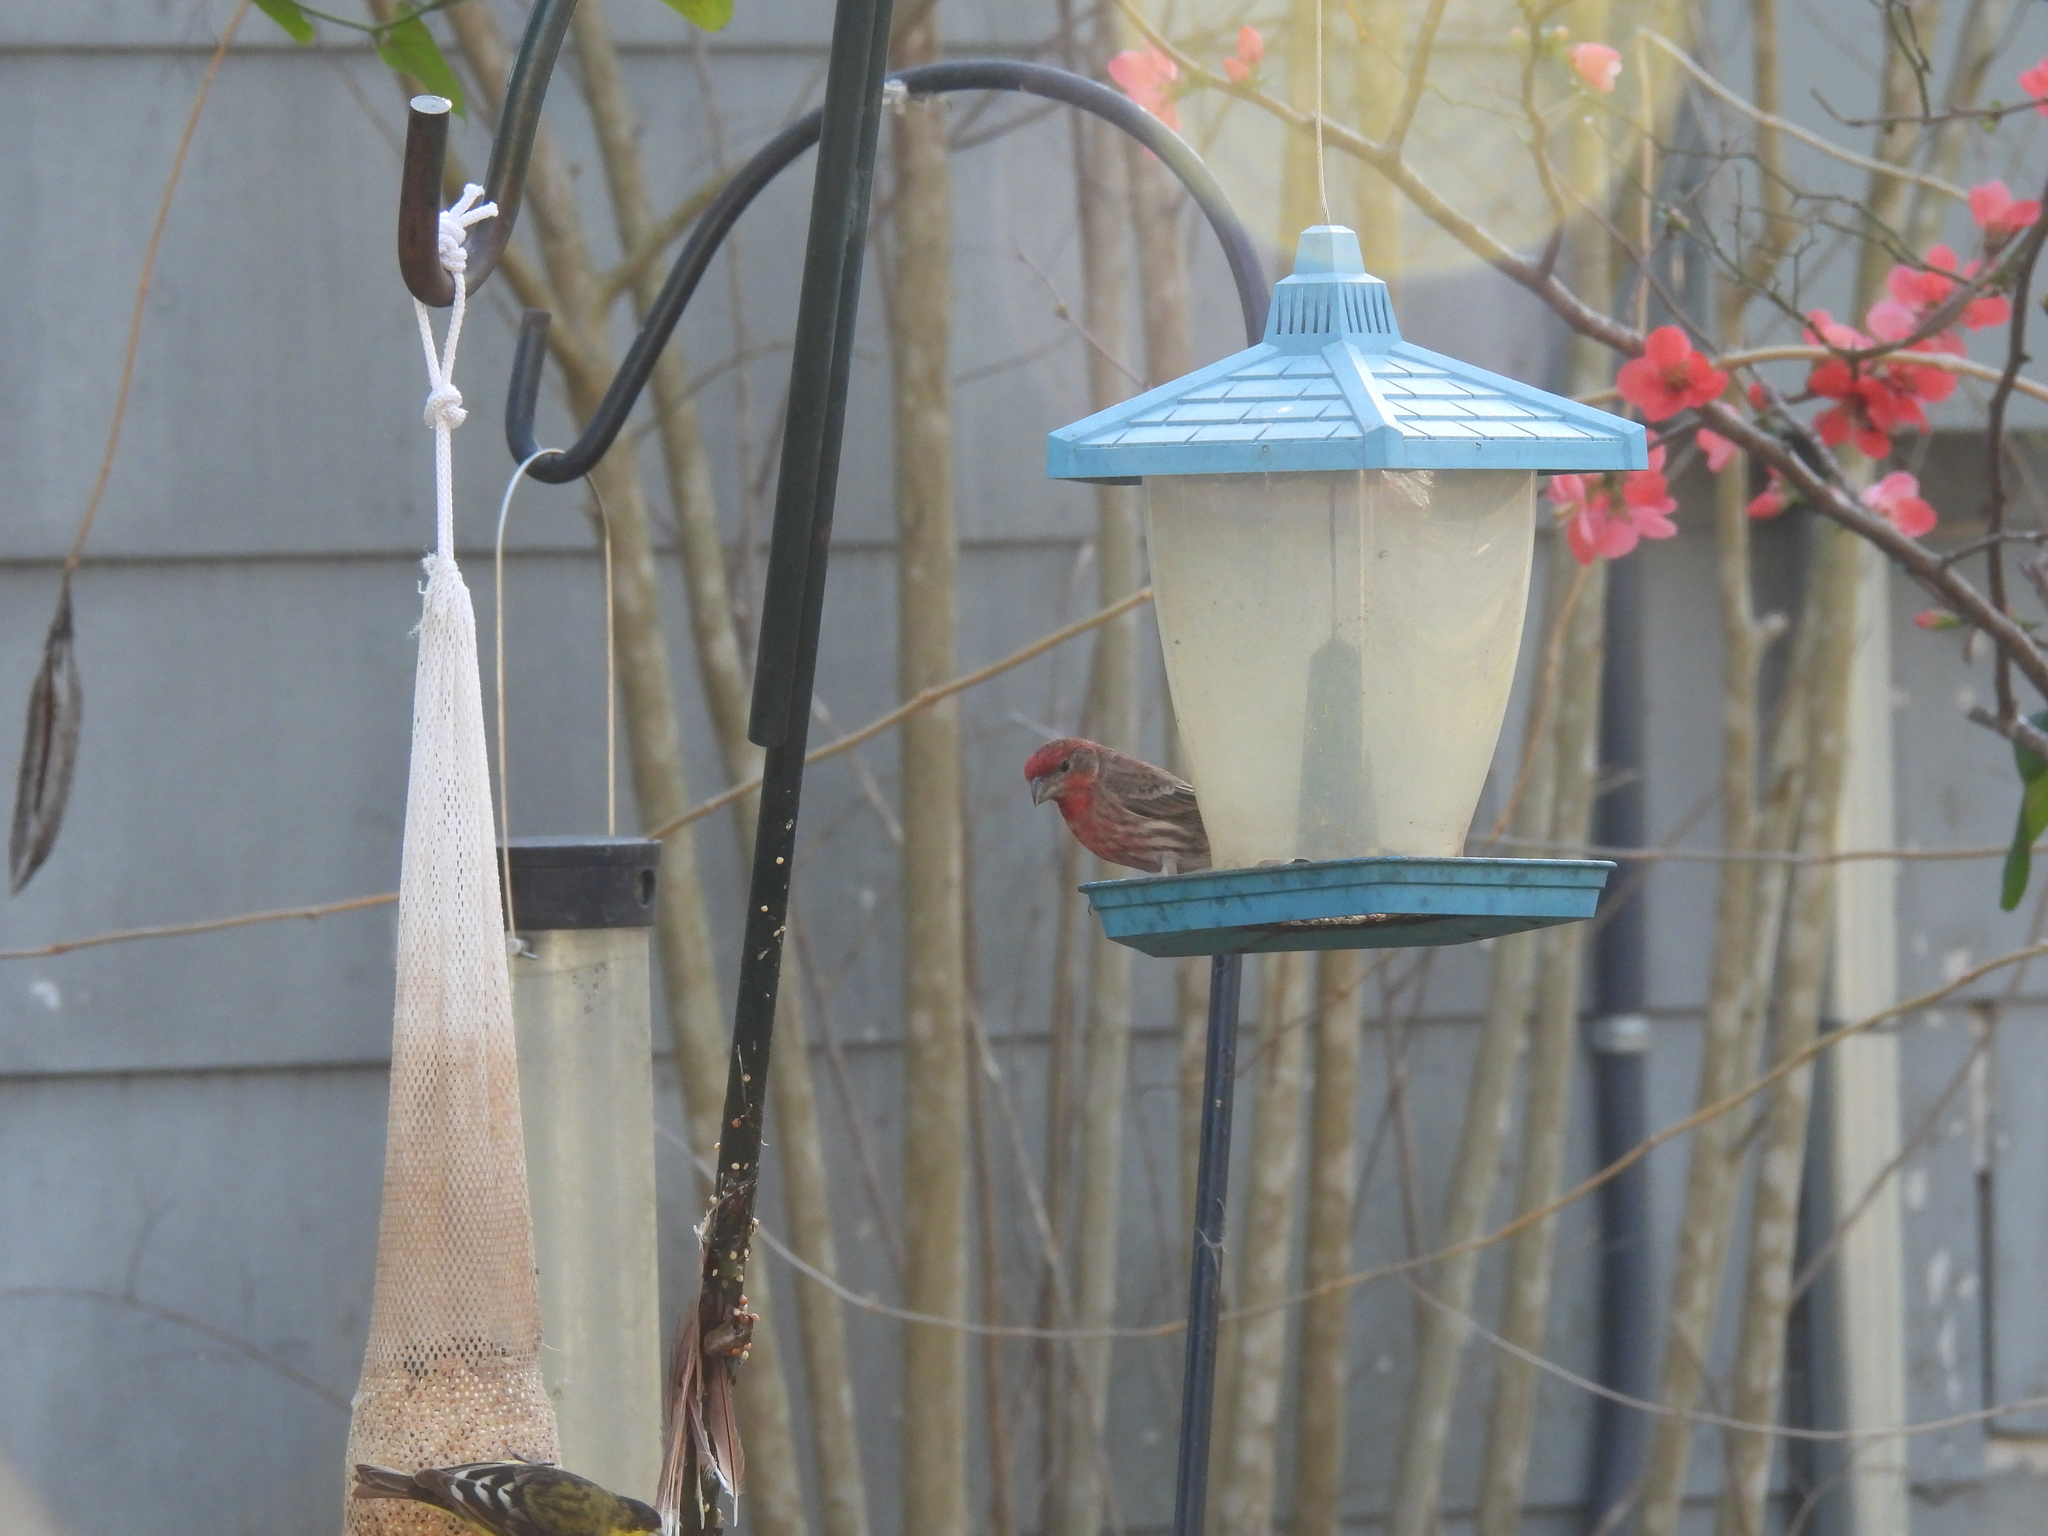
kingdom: Animalia
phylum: Chordata
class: Aves
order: Passeriformes
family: Fringillidae
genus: Haemorhous
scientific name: Haemorhous mexicanus
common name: House finch
